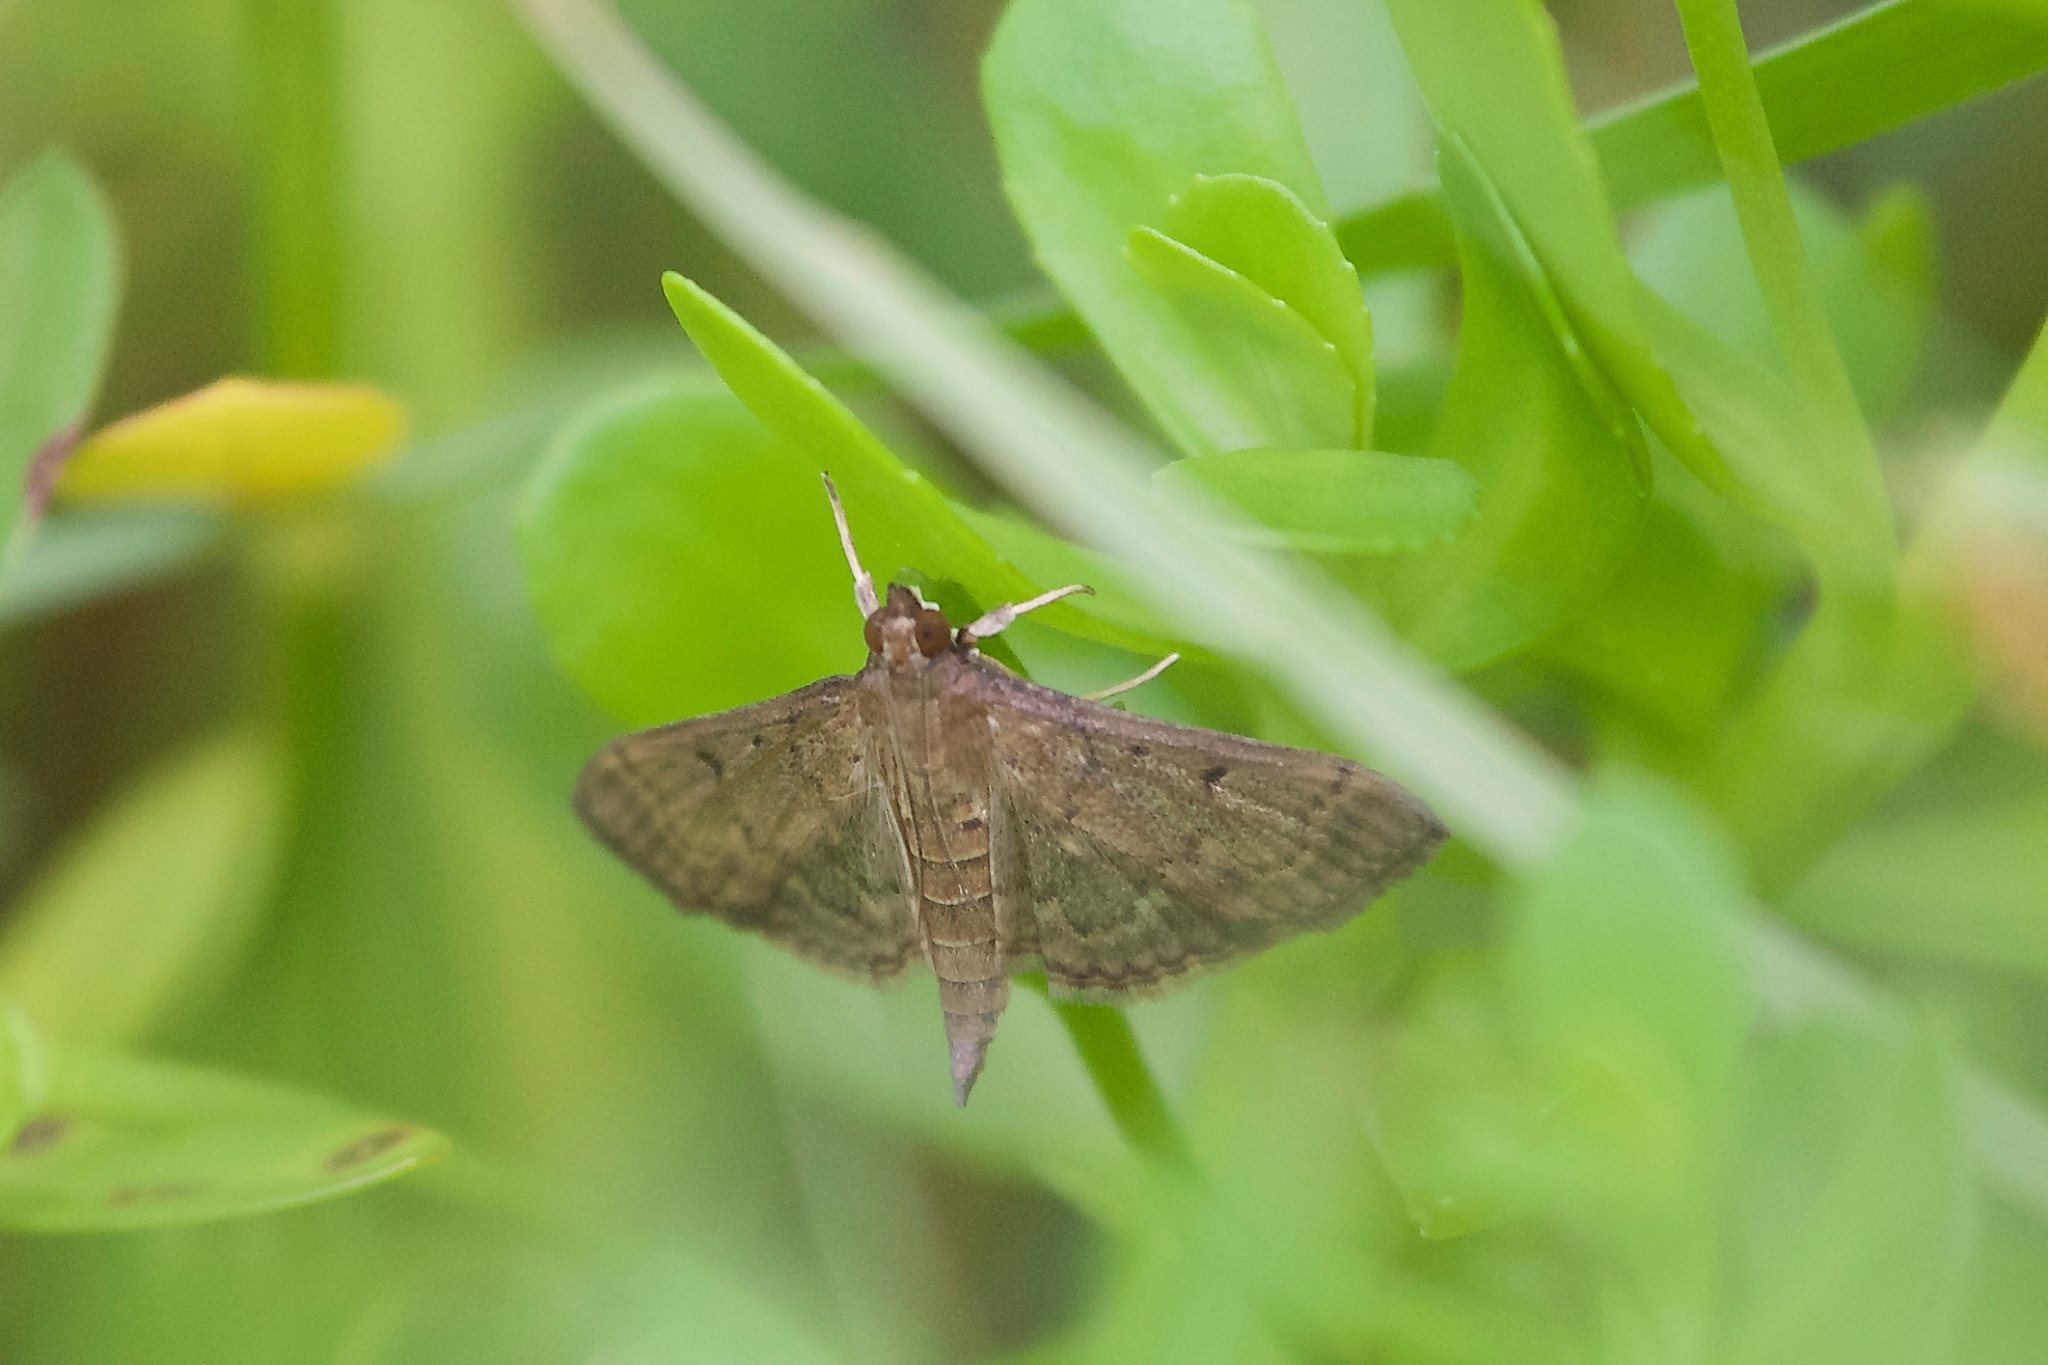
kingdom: Animalia
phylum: Arthropoda
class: Insecta
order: Lepidoptera
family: Crambidae
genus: Herpetogramma
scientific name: Herpetogramma phaeopteralis
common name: Dusky herpetogramma moth
